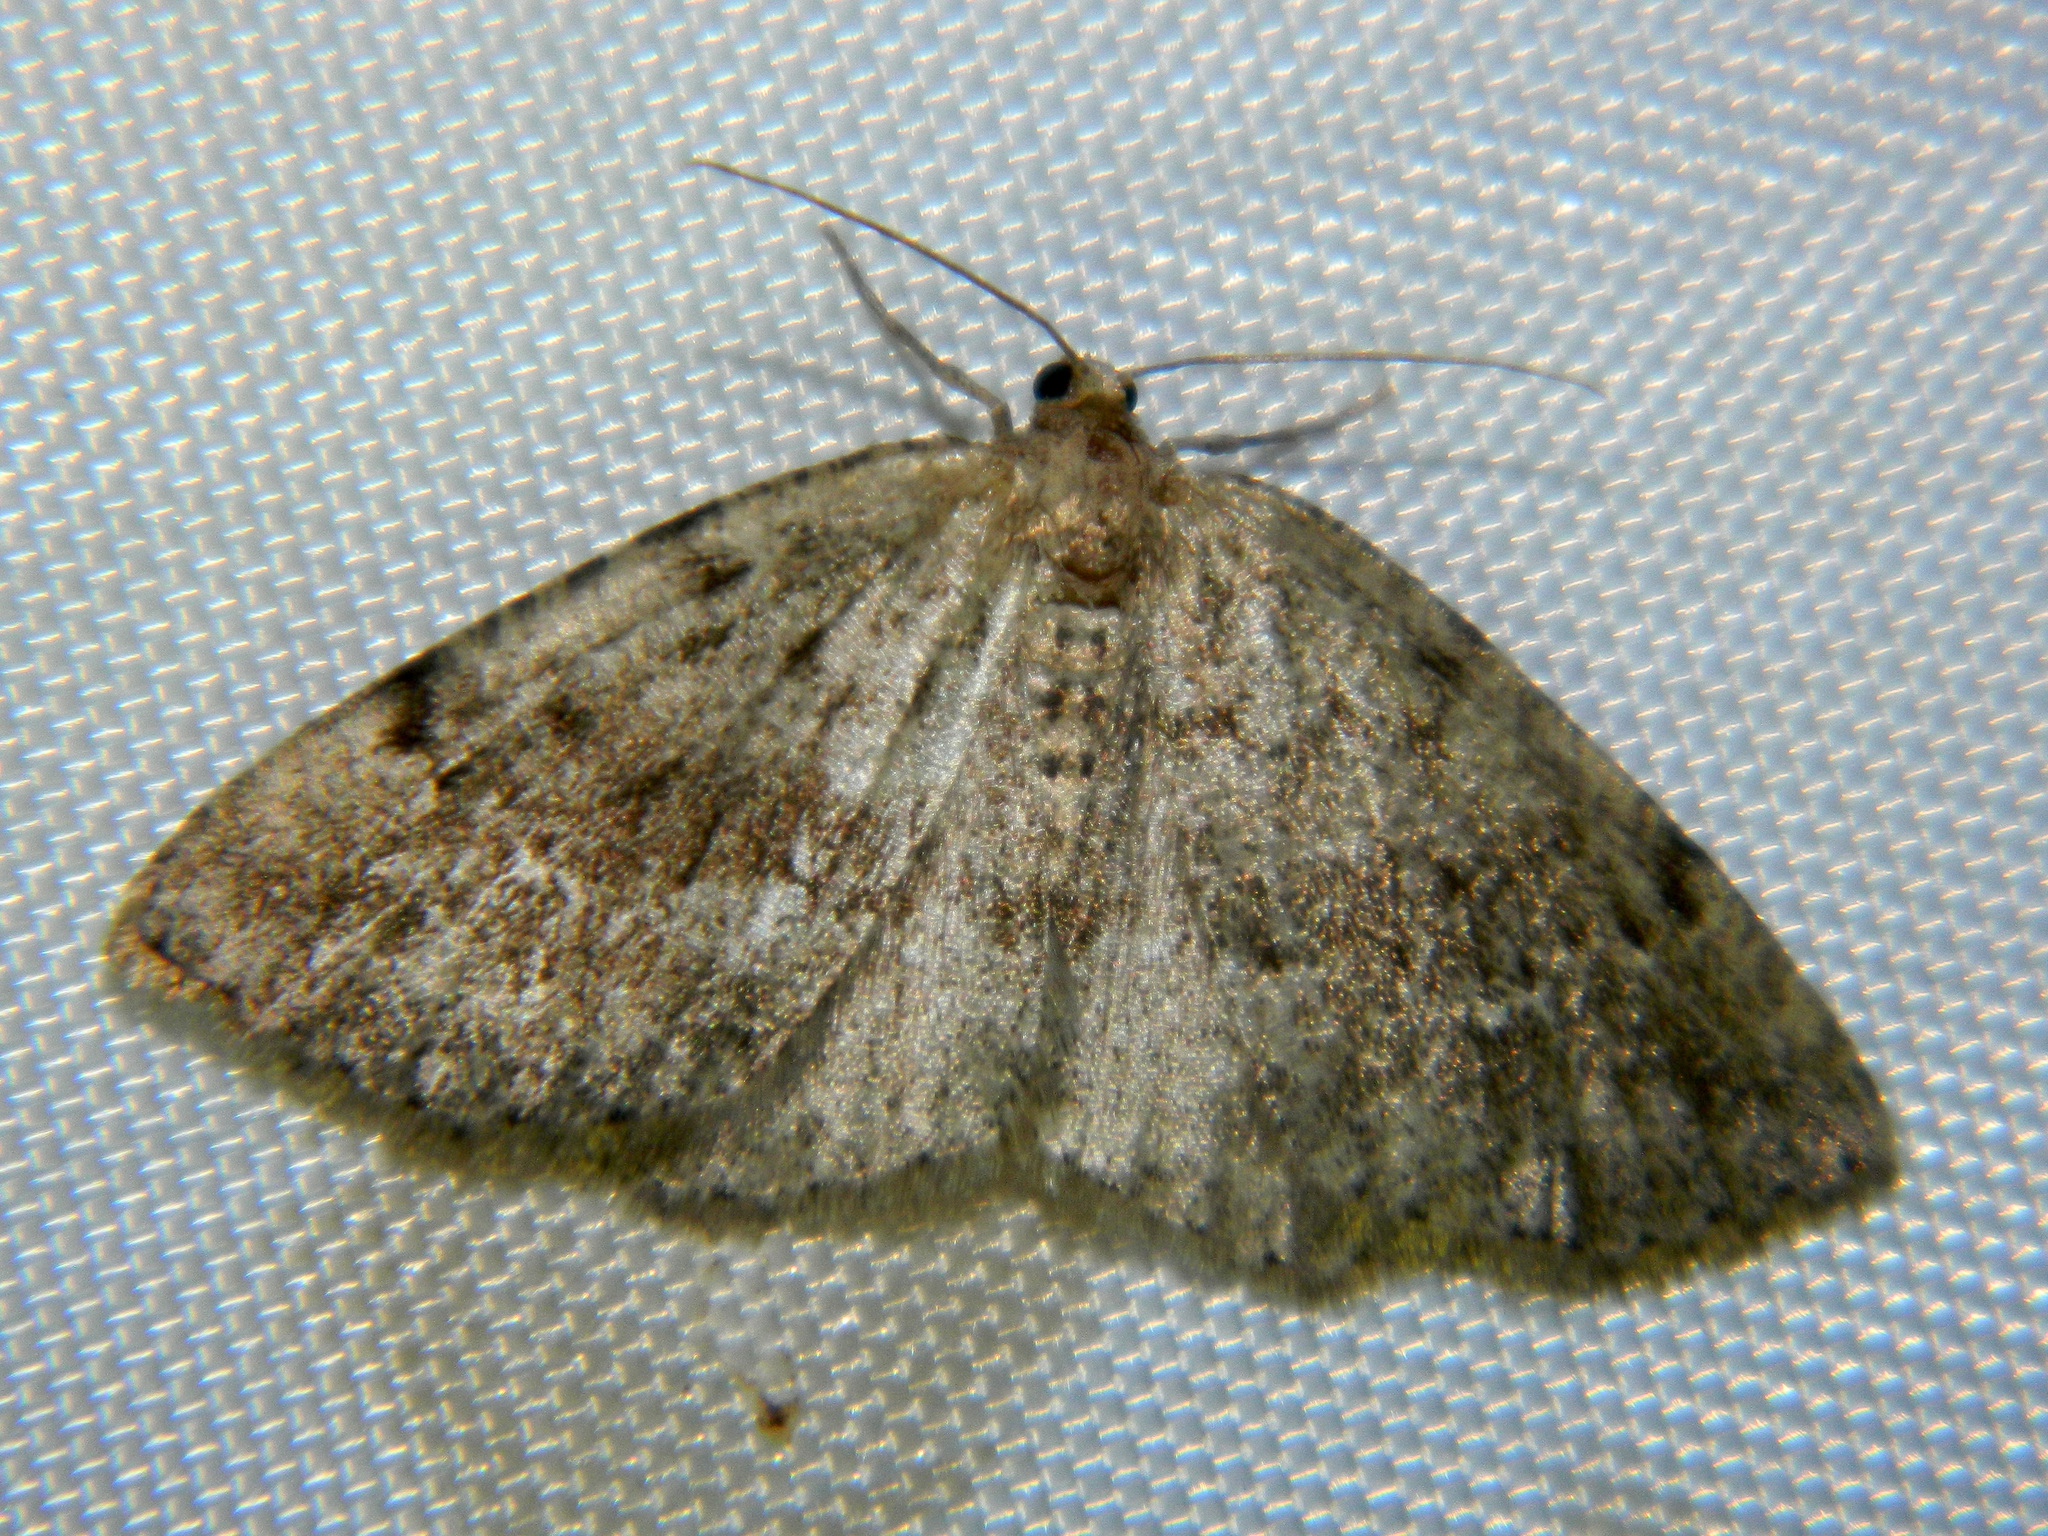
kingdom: Animalia
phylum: Arthropoda
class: Insecta
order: Lepidoptera
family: Geometridae
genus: Homochlodes
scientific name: Homochlodes fritillaria
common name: Pale homochlodes
